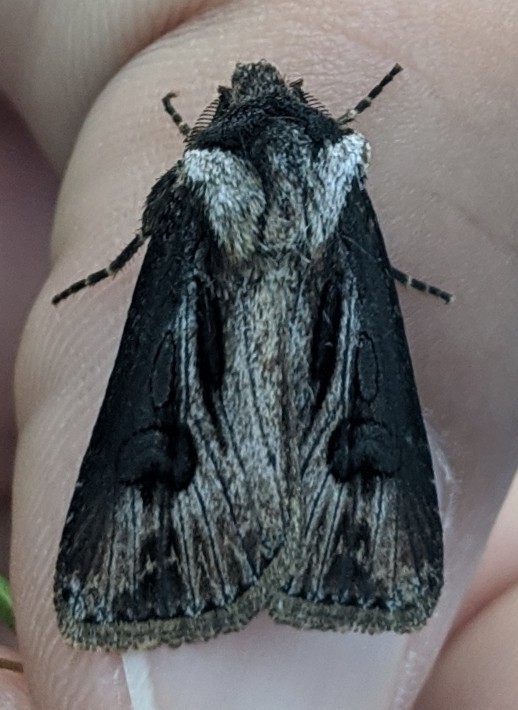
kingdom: Animalia
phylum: Arthropoda
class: Insecta
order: Lepidoptera
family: Noctuidae
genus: Agrotis
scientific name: Agrotis venerabilis
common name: Venerable dart
